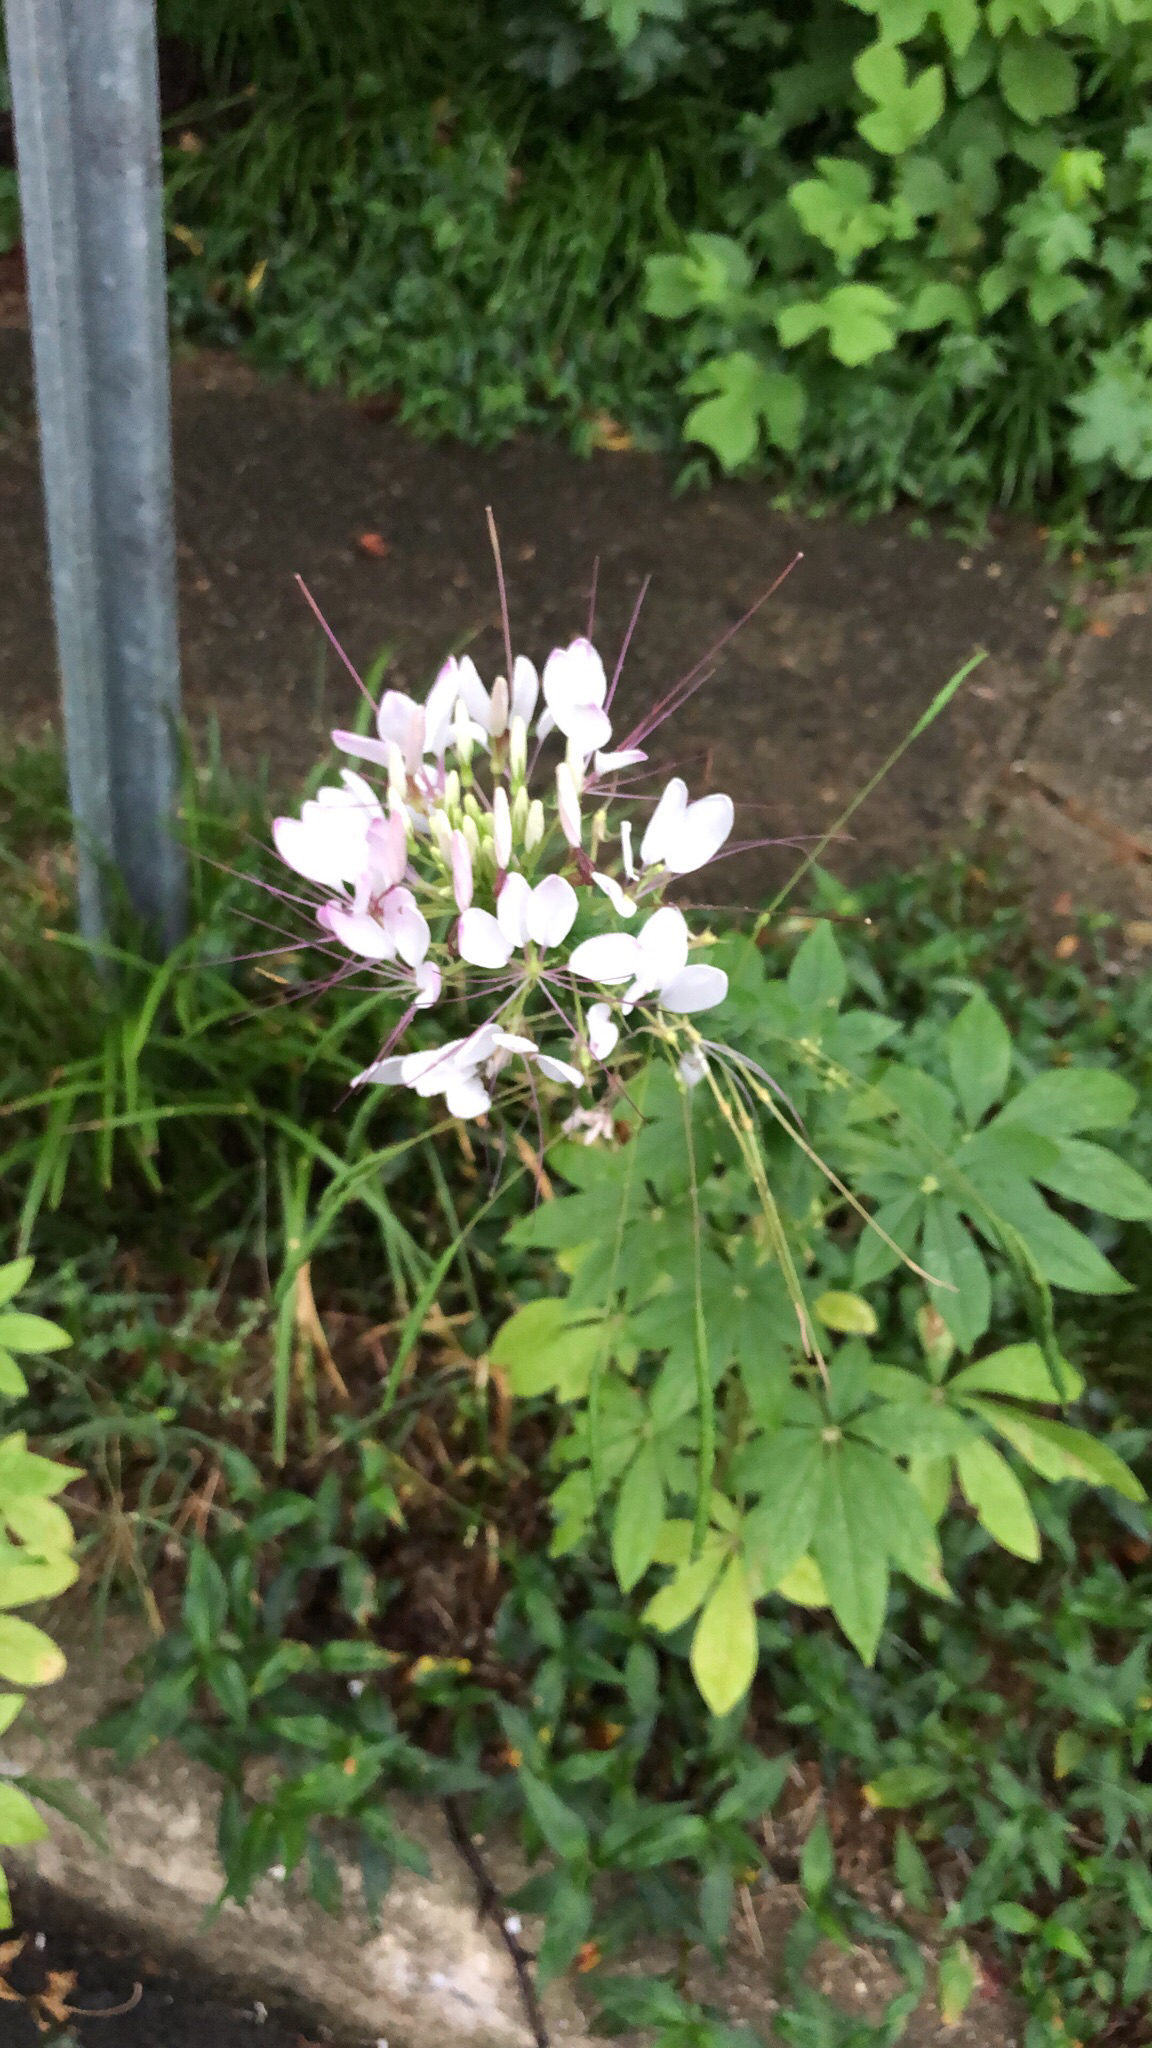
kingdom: Plantae
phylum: Tracheophyta
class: Magnoliopsida
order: Brassicales
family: Cleomaceae
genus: Tarenaya
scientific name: Tarenaya houtteana
